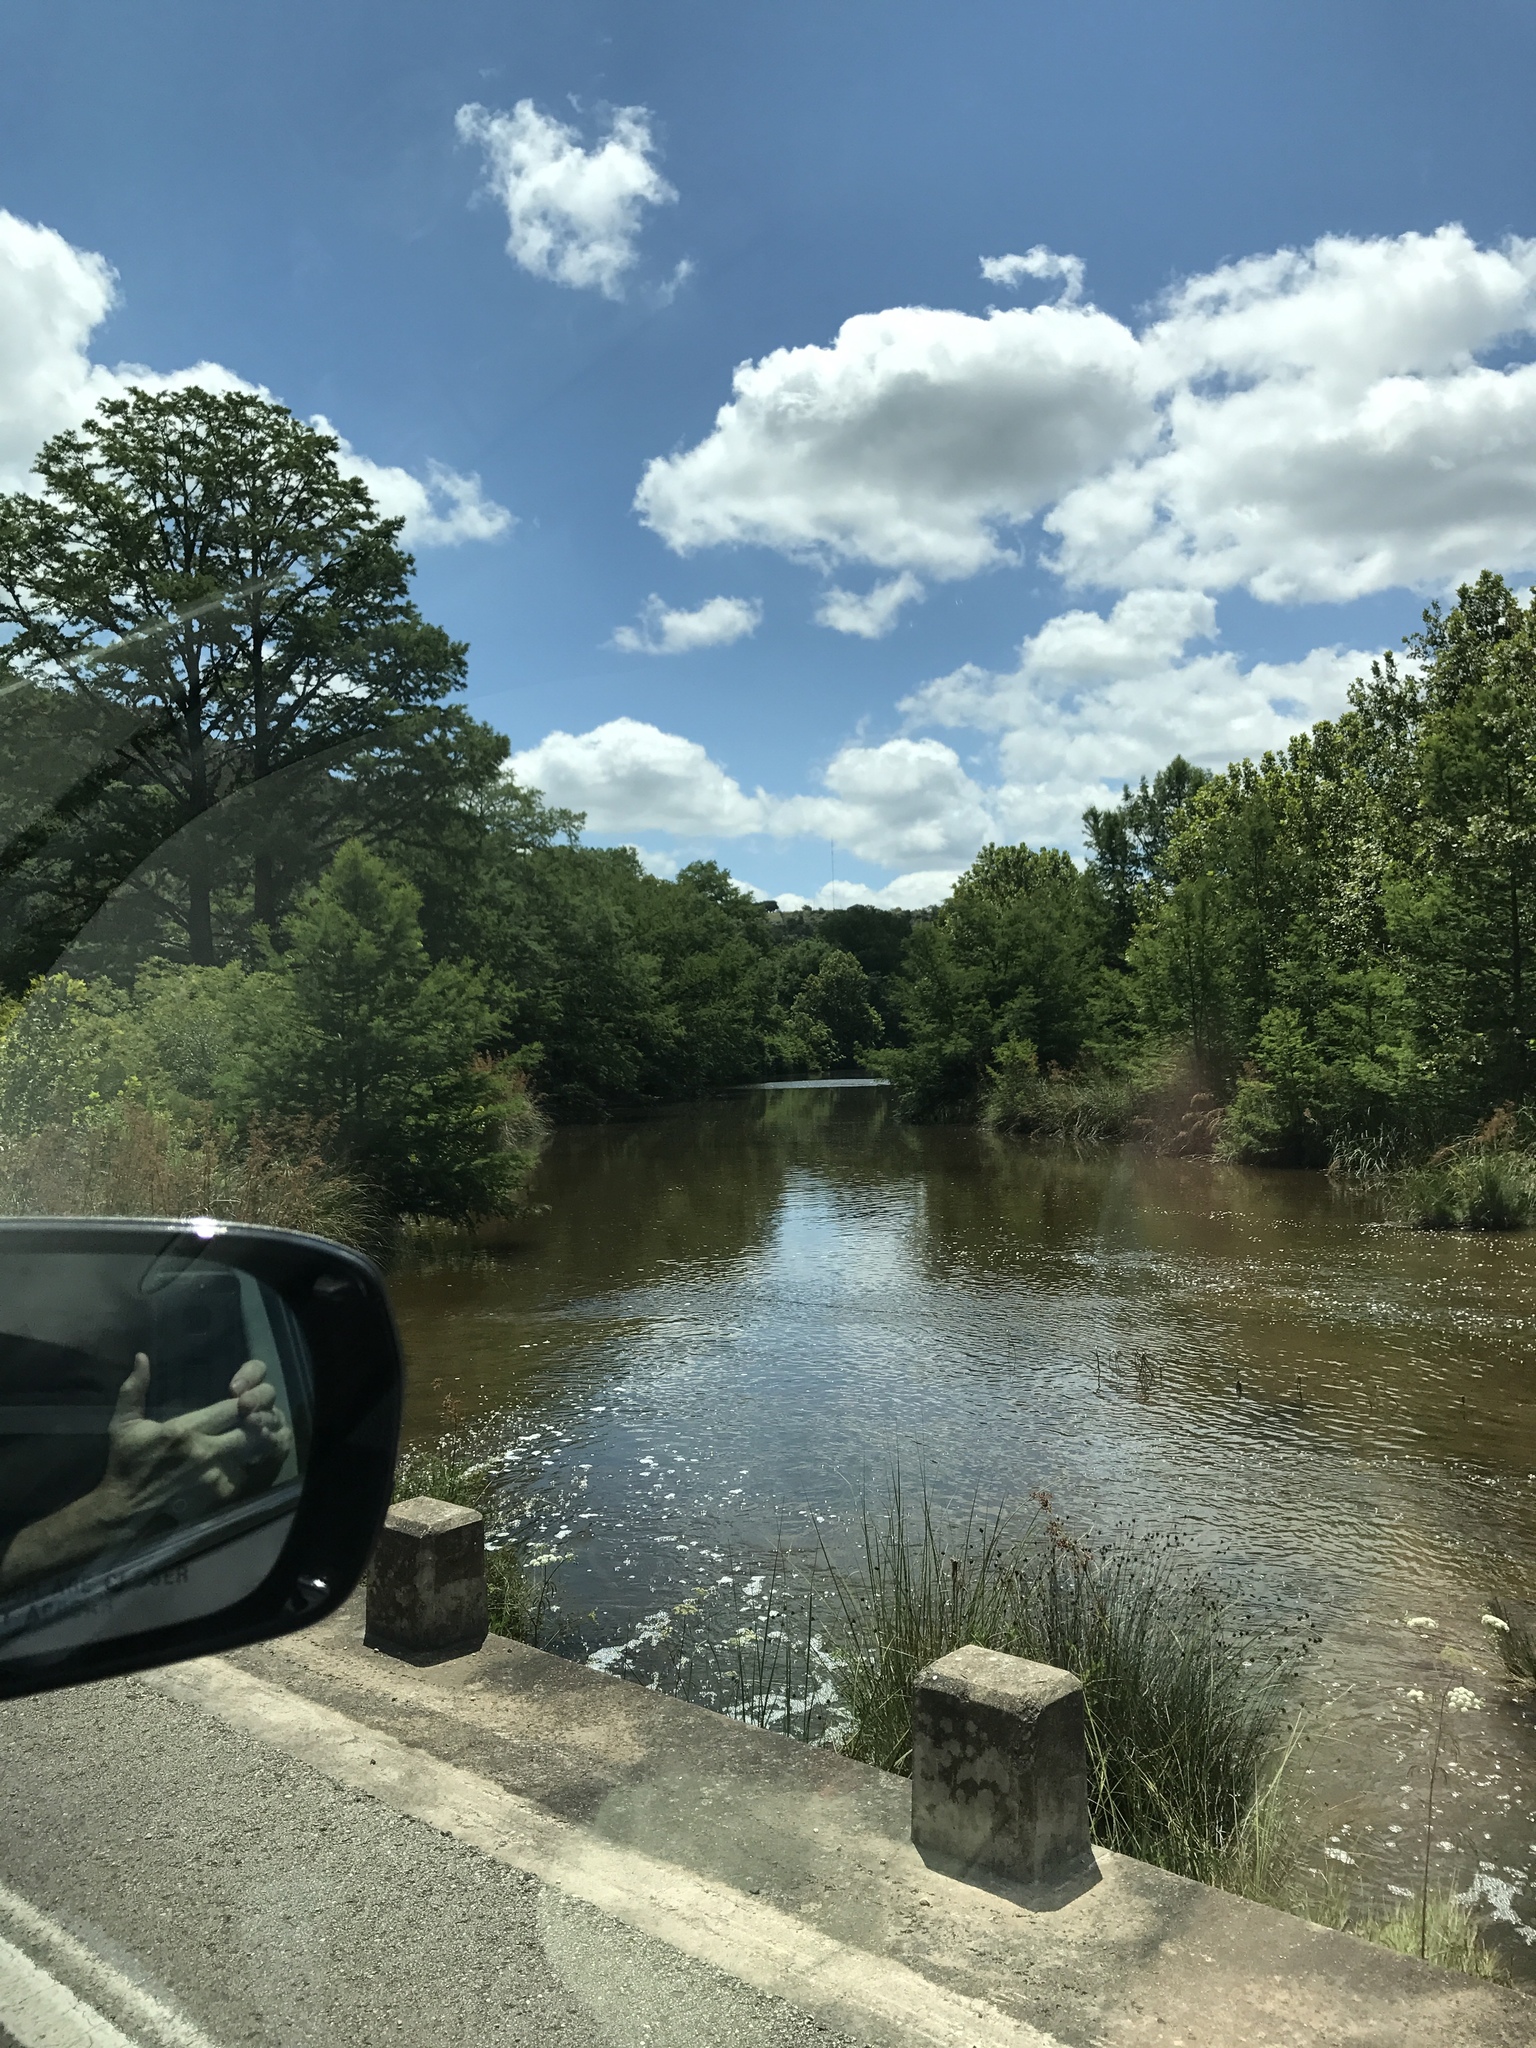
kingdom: Plantae
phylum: Tracheophyta
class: Pinopsida
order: Pinales
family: Cupressaceae
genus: Taxodium
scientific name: Taxodium distichum
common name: Bald cypress
